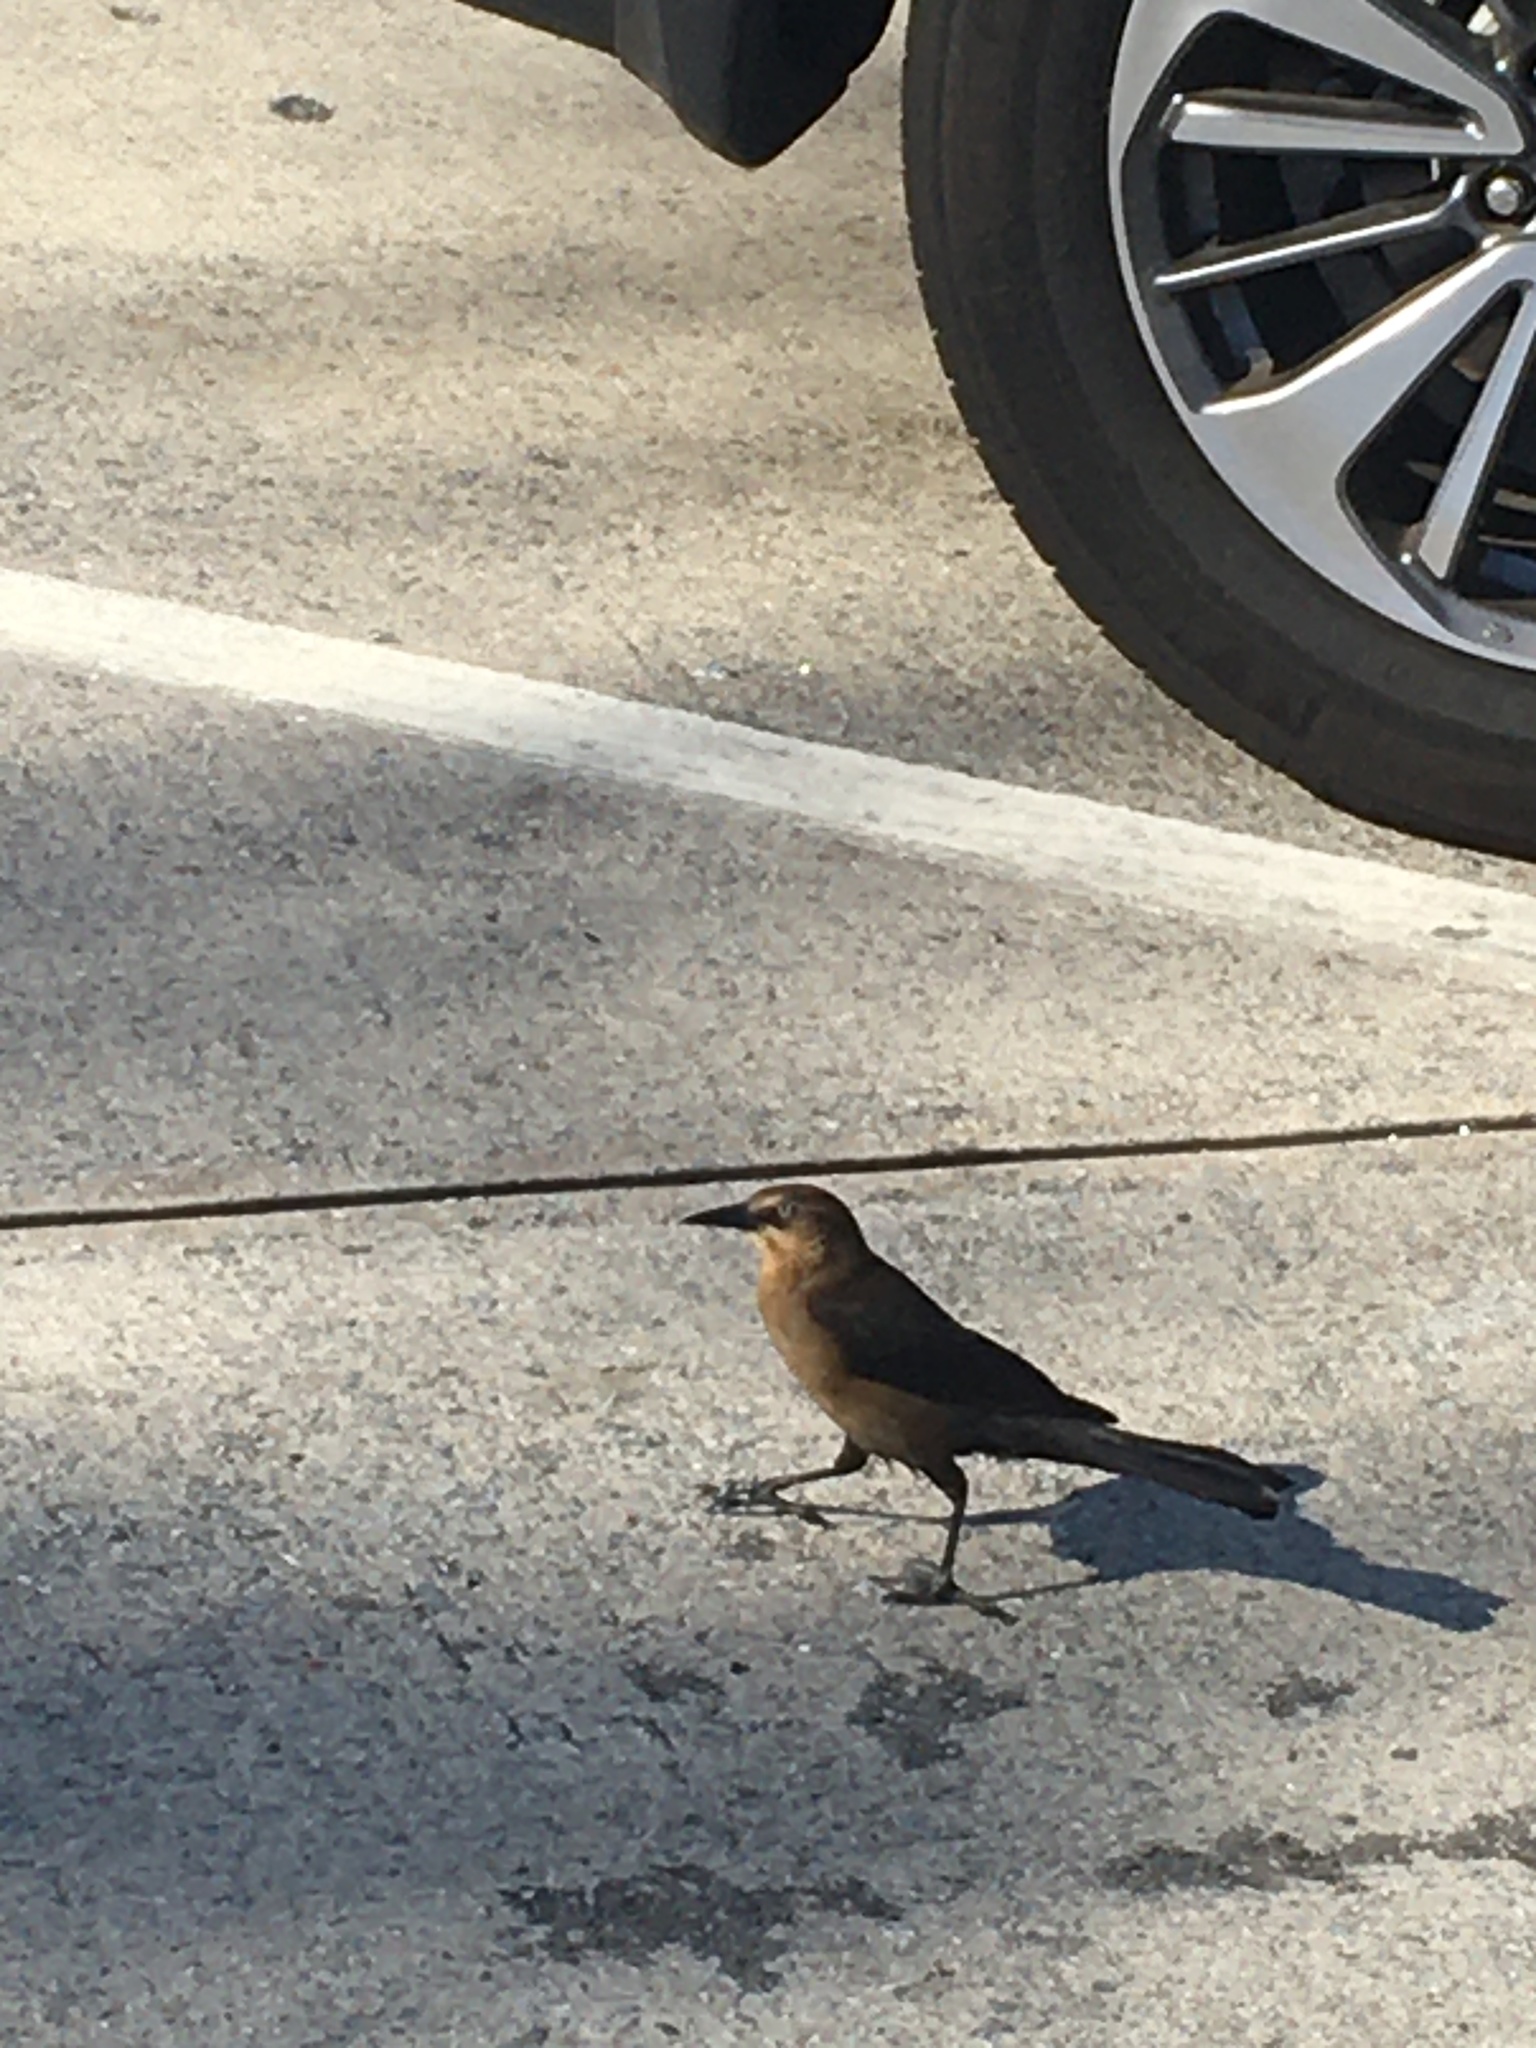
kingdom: Animalia
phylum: Chordata
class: Aves
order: Passeriformes
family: Icteridae
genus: Quiscalus
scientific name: Quiscalus major
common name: Boat-tailed grackle
